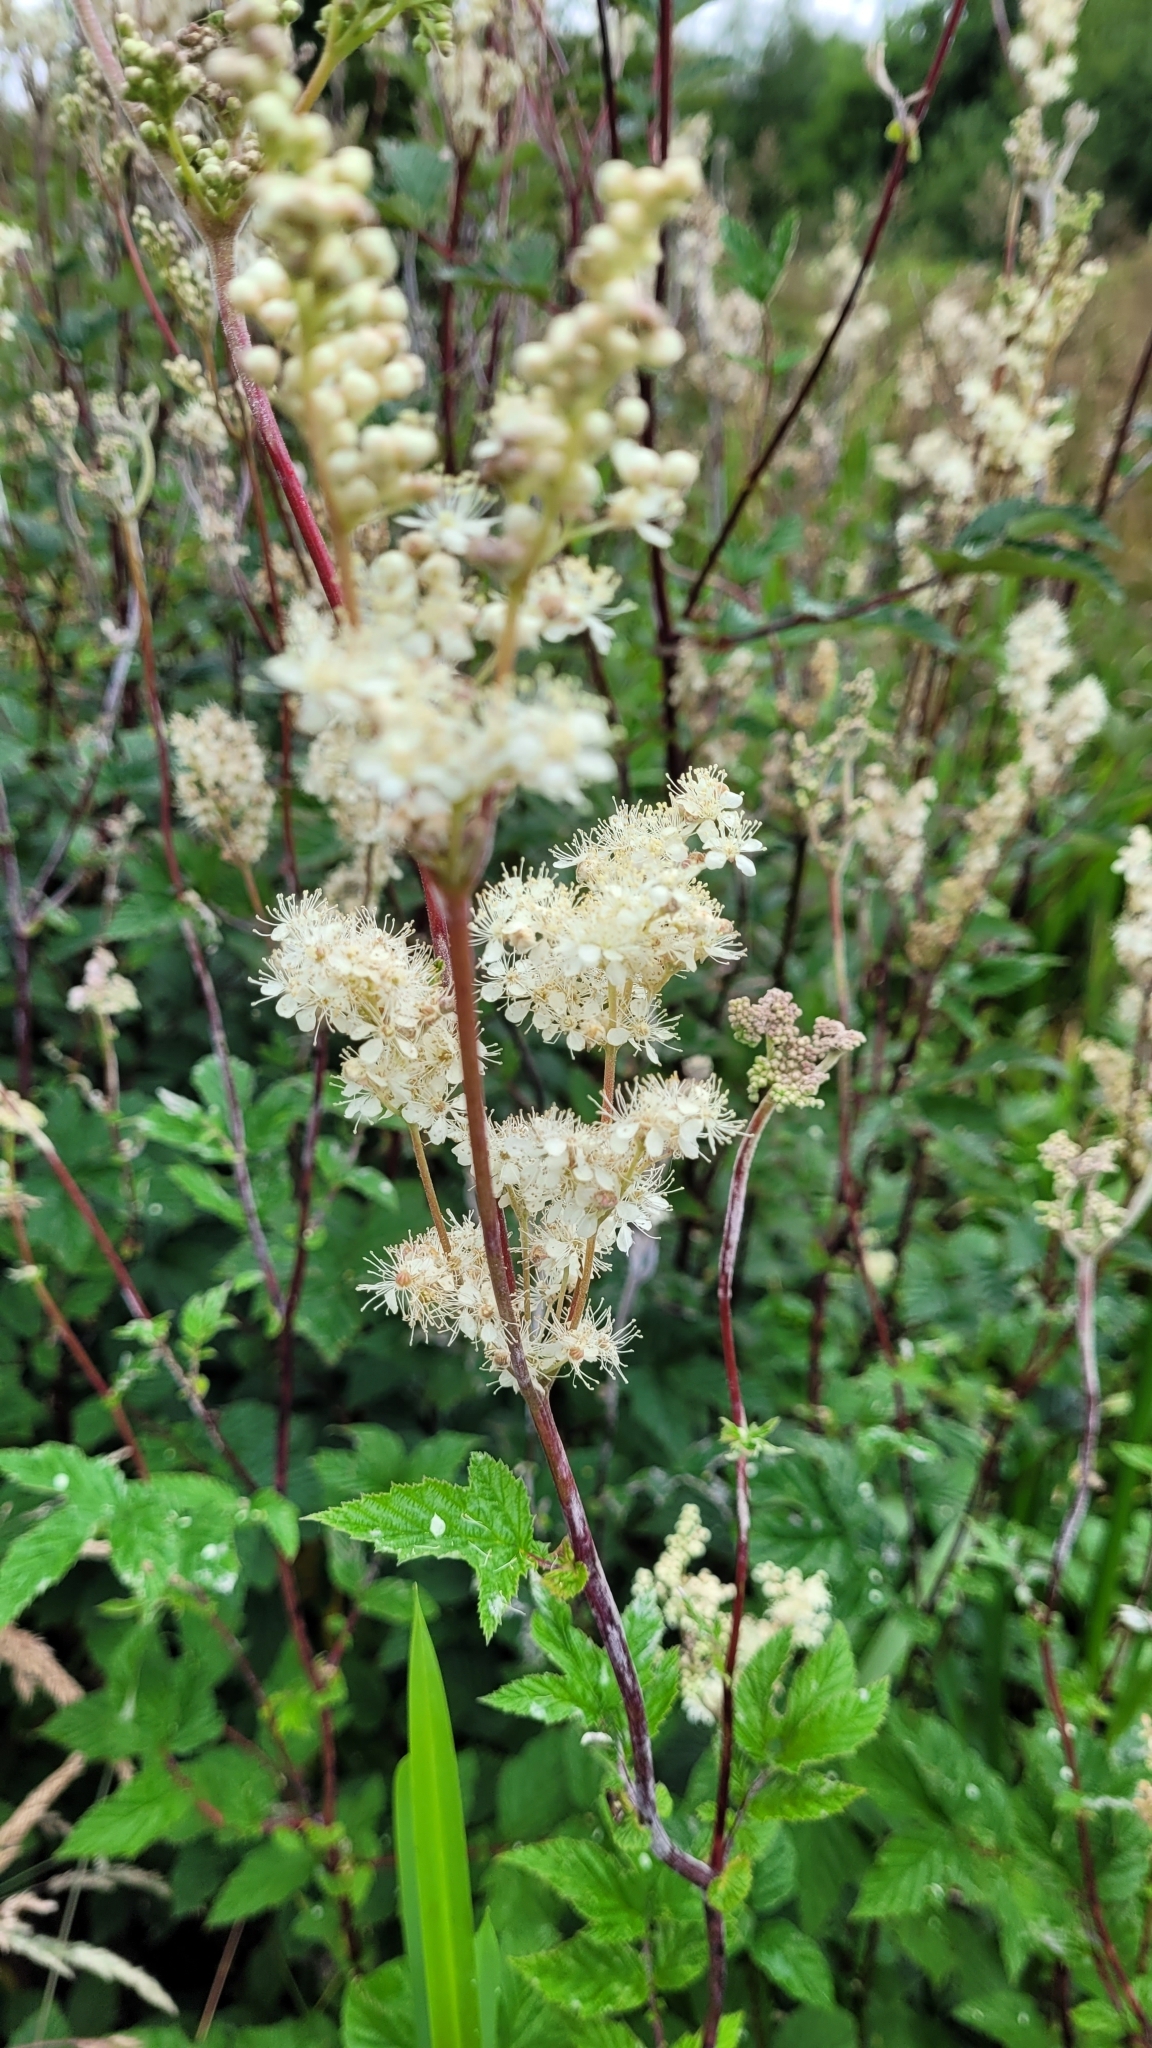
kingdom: Plantae
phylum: Tracheophyta
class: Magnoliopsida
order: Rosales
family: Rosaceae
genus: Filipendula
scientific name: Filipendula ulmaria
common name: Meadowsweet
